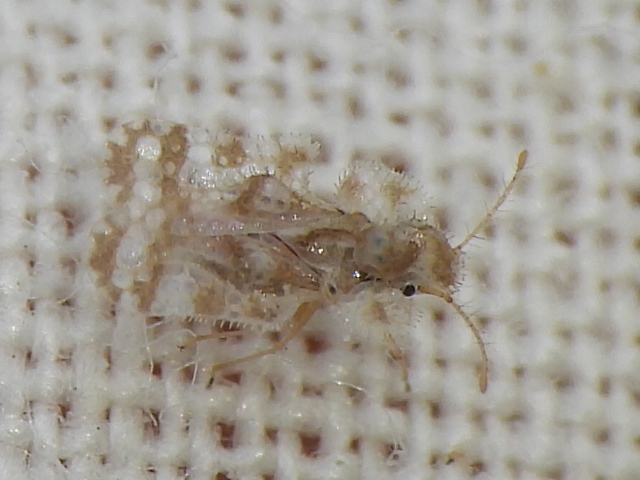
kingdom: Animalia
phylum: Arthropoda
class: Insecta
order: Hemiptera
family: Tingidae
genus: Corythucha
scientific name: Corythucha marmorata
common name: Chrysanthemum lace bug
